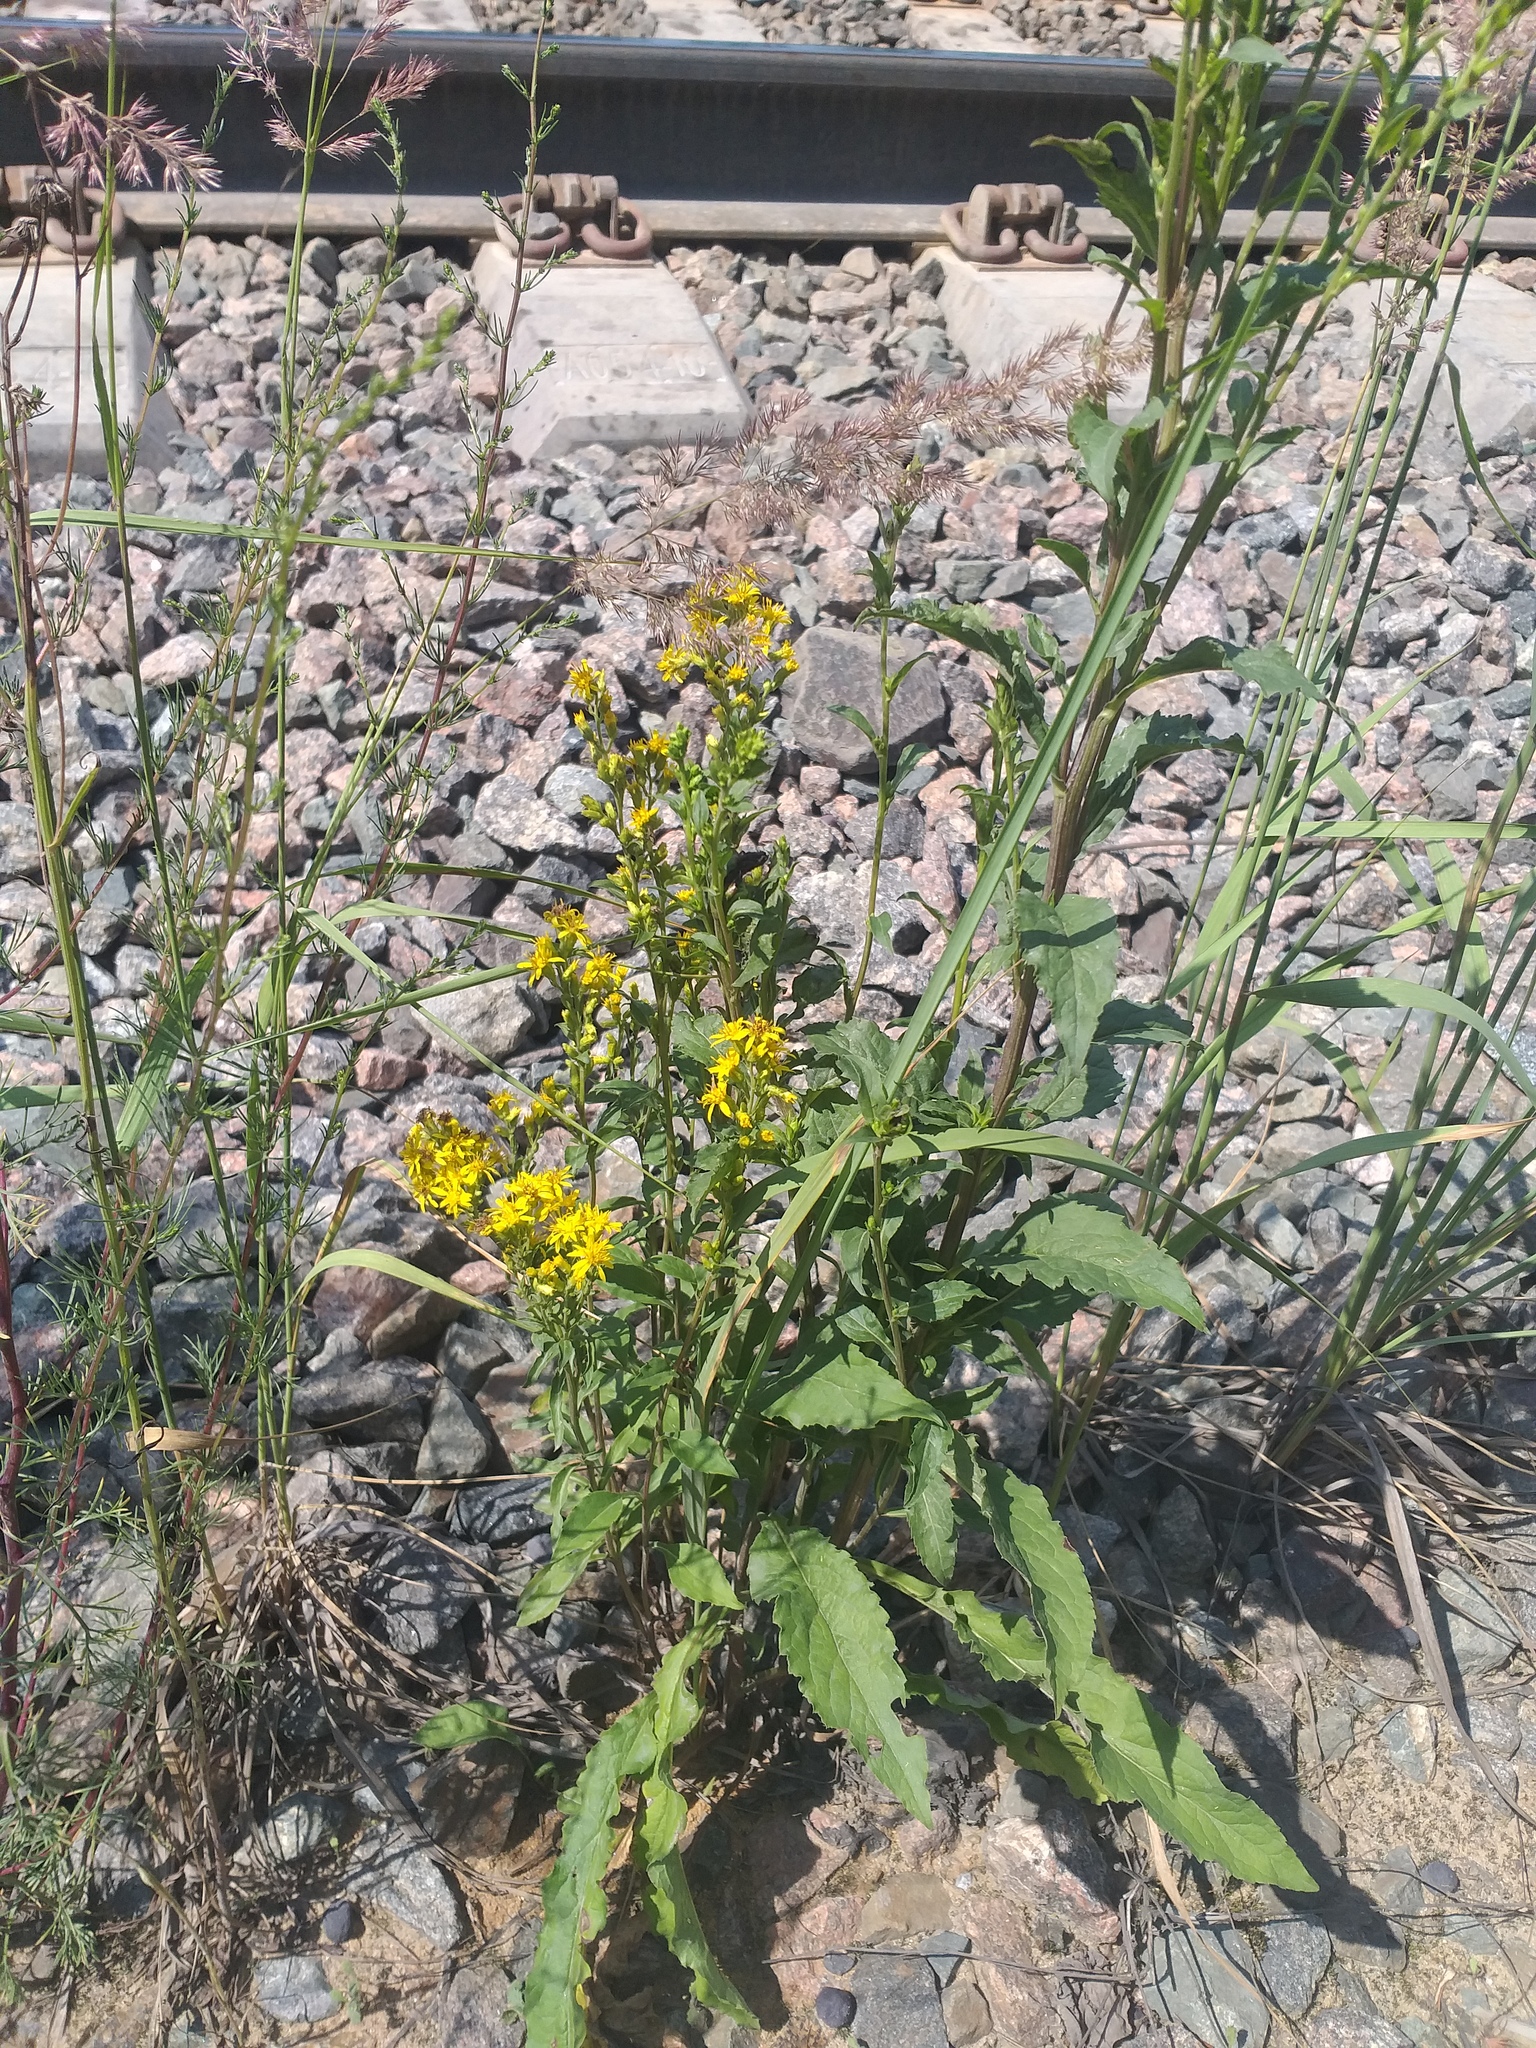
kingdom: Plantae
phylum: Tracheophyta
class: Magnoliopsida
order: Asterales
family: Asteraceae
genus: Solidago
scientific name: Solidago virgaurea
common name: Goldenrod
